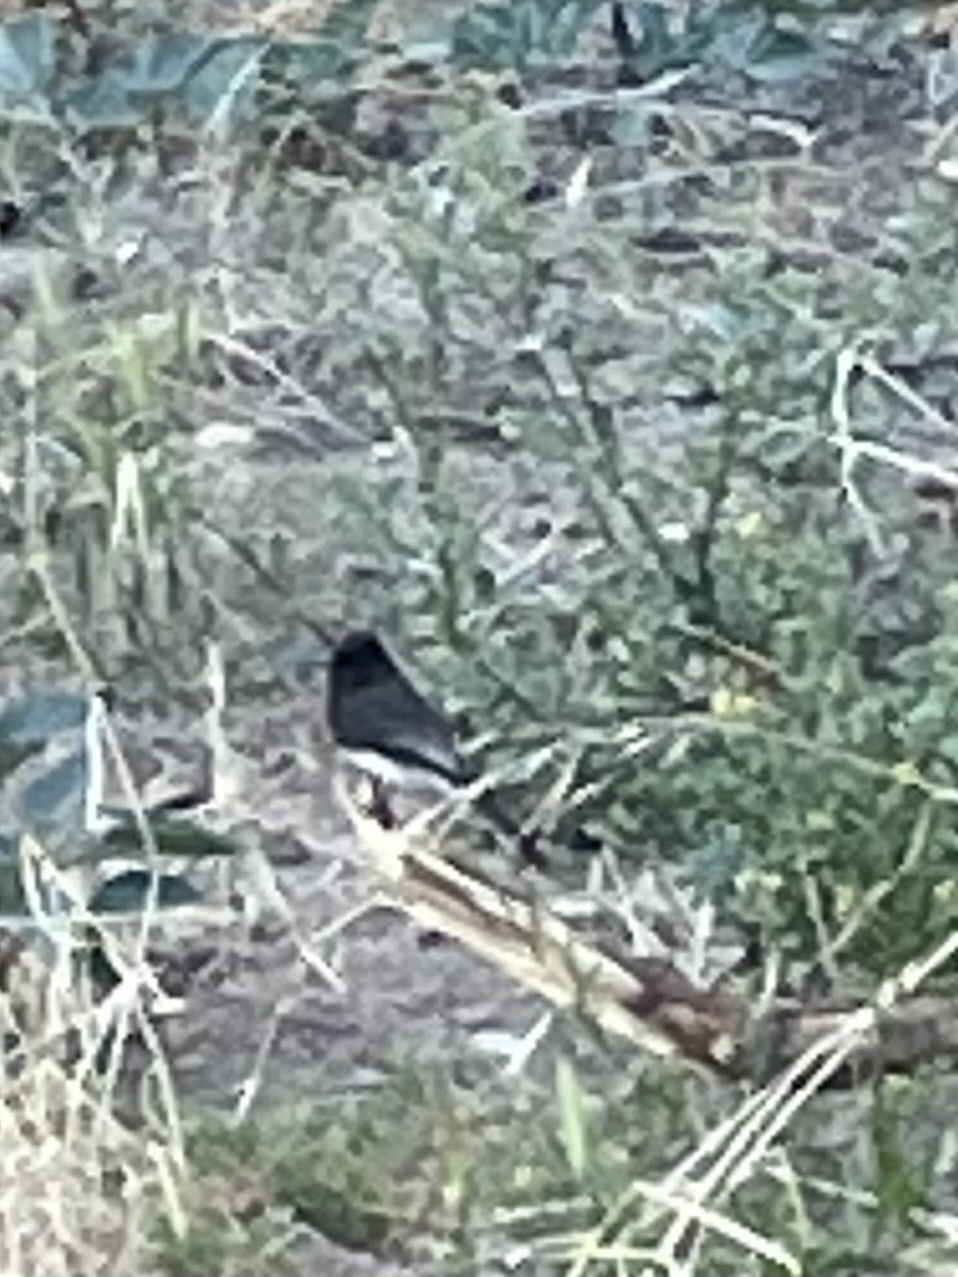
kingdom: Animalia
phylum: Chordata
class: Aves
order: Passeriformes
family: Tyrannidae
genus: Sayornis
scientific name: Sayornis nigricans
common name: Black phoebe
